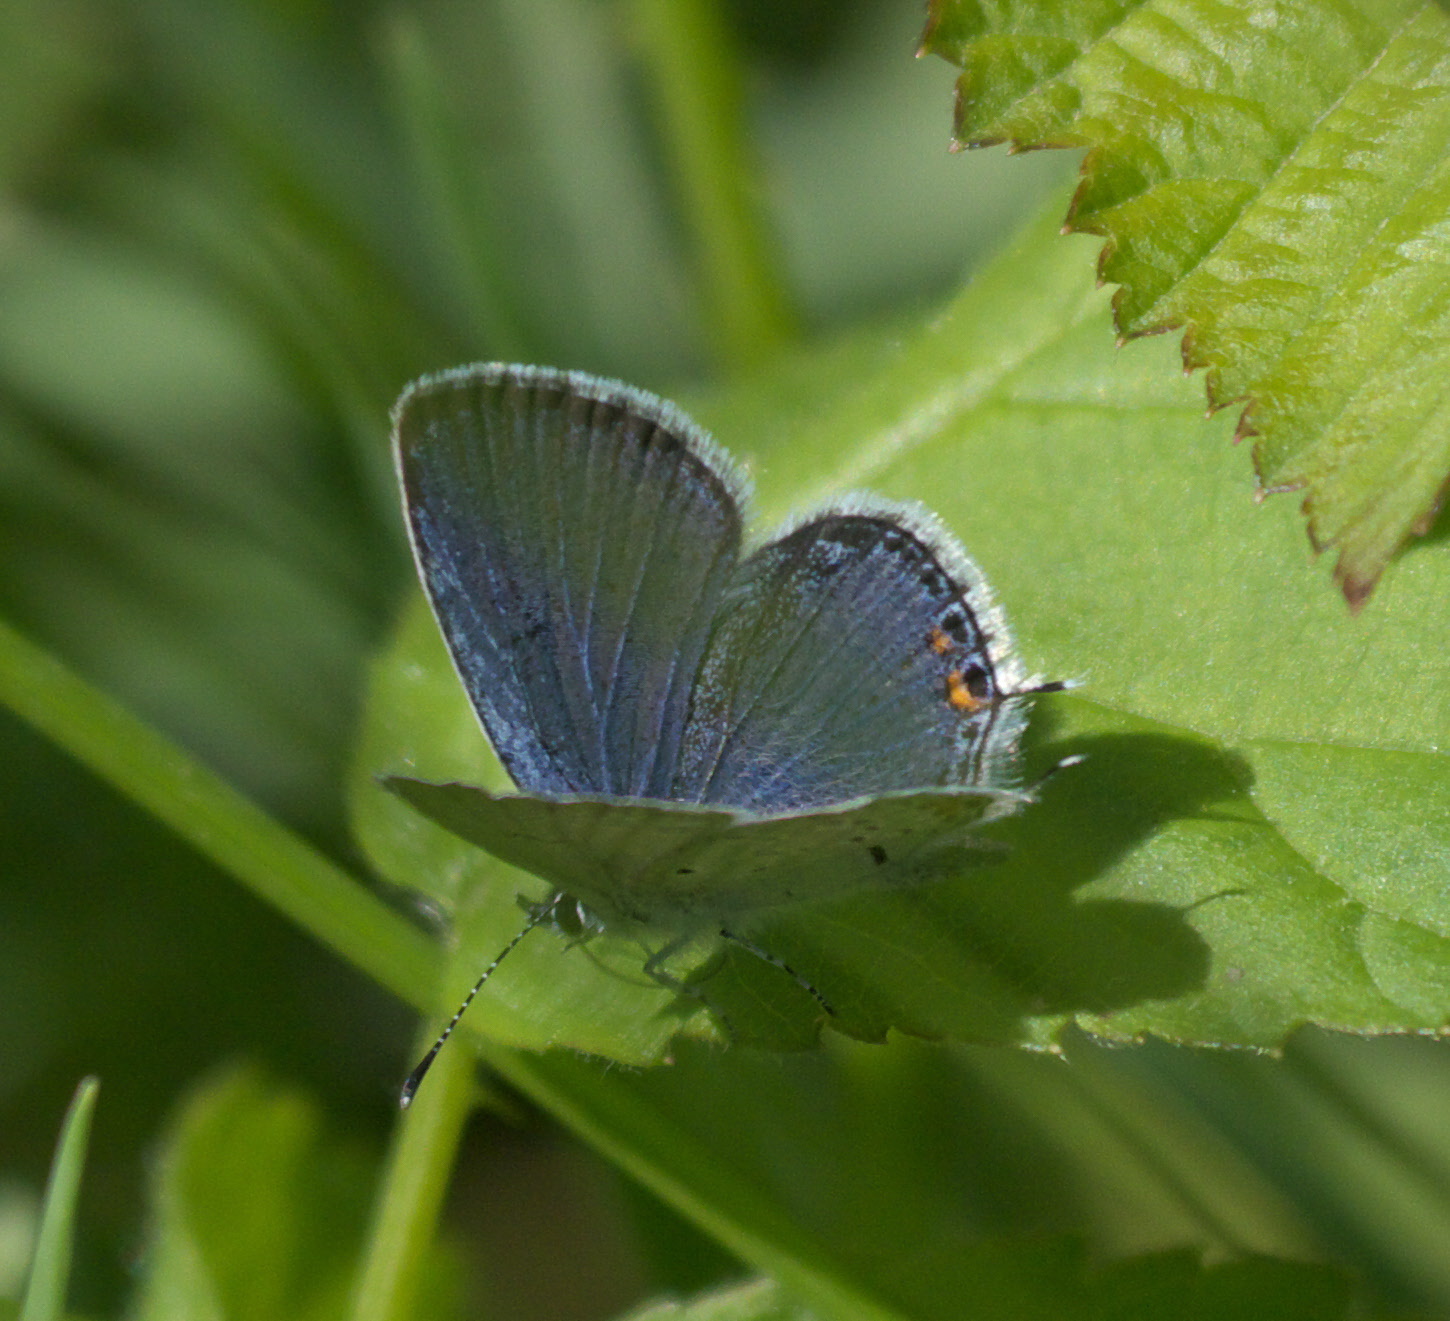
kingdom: Animalia
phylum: Arthropoda
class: Insecta
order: Lepidoptera
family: Lycaenidae
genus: Elkalyce
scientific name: Elkalyce comyntas
